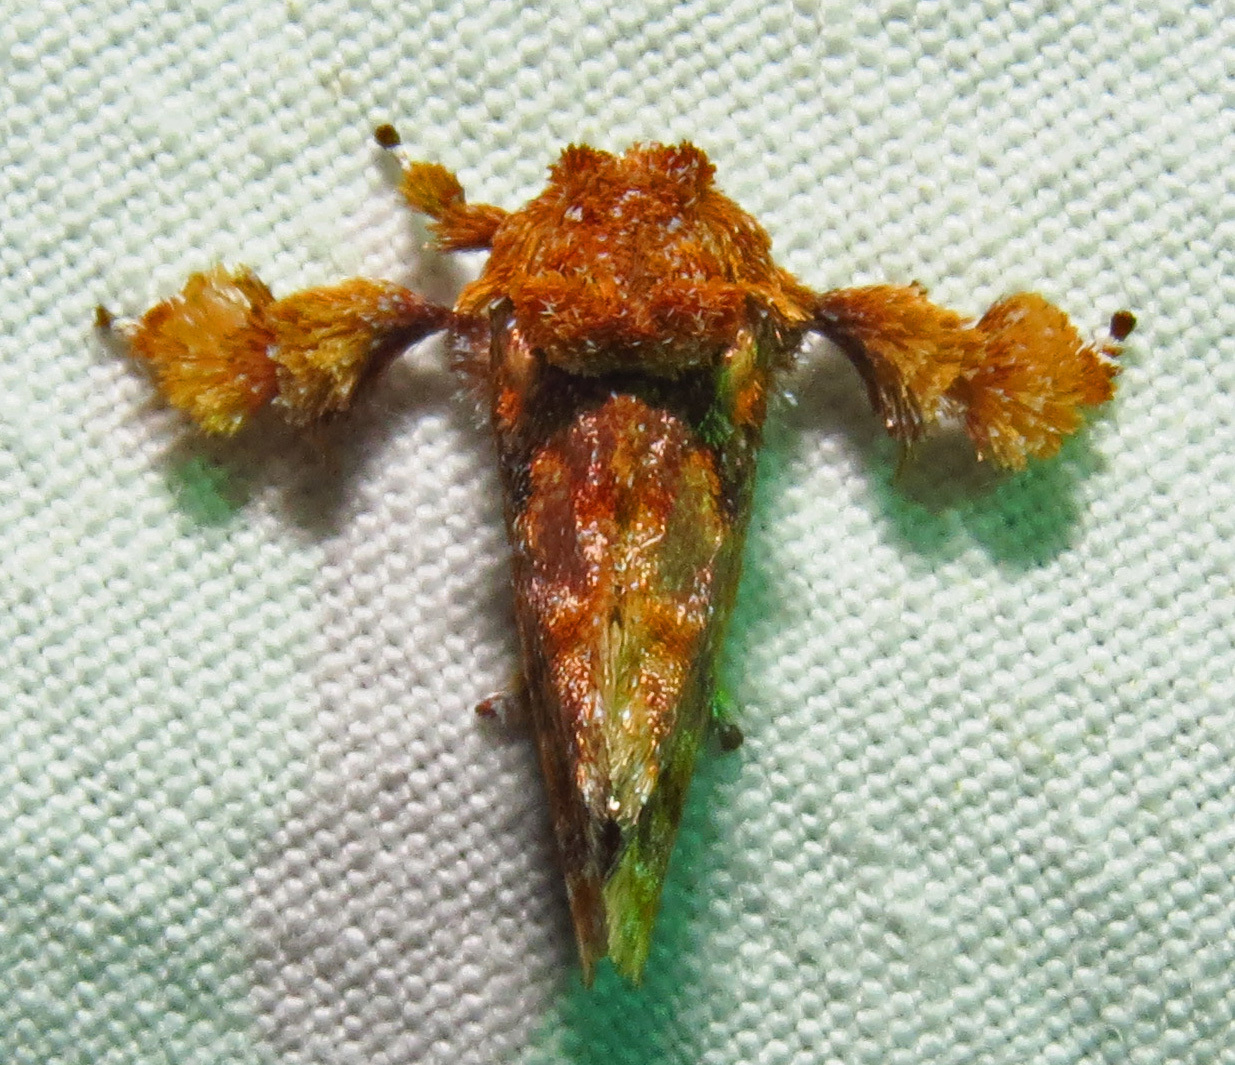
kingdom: Animalia
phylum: Arthropoda
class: Insecta
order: Lepidoptera
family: Limacodidae
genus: Isochaetes
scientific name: Isochaetes beutenmuelleri
